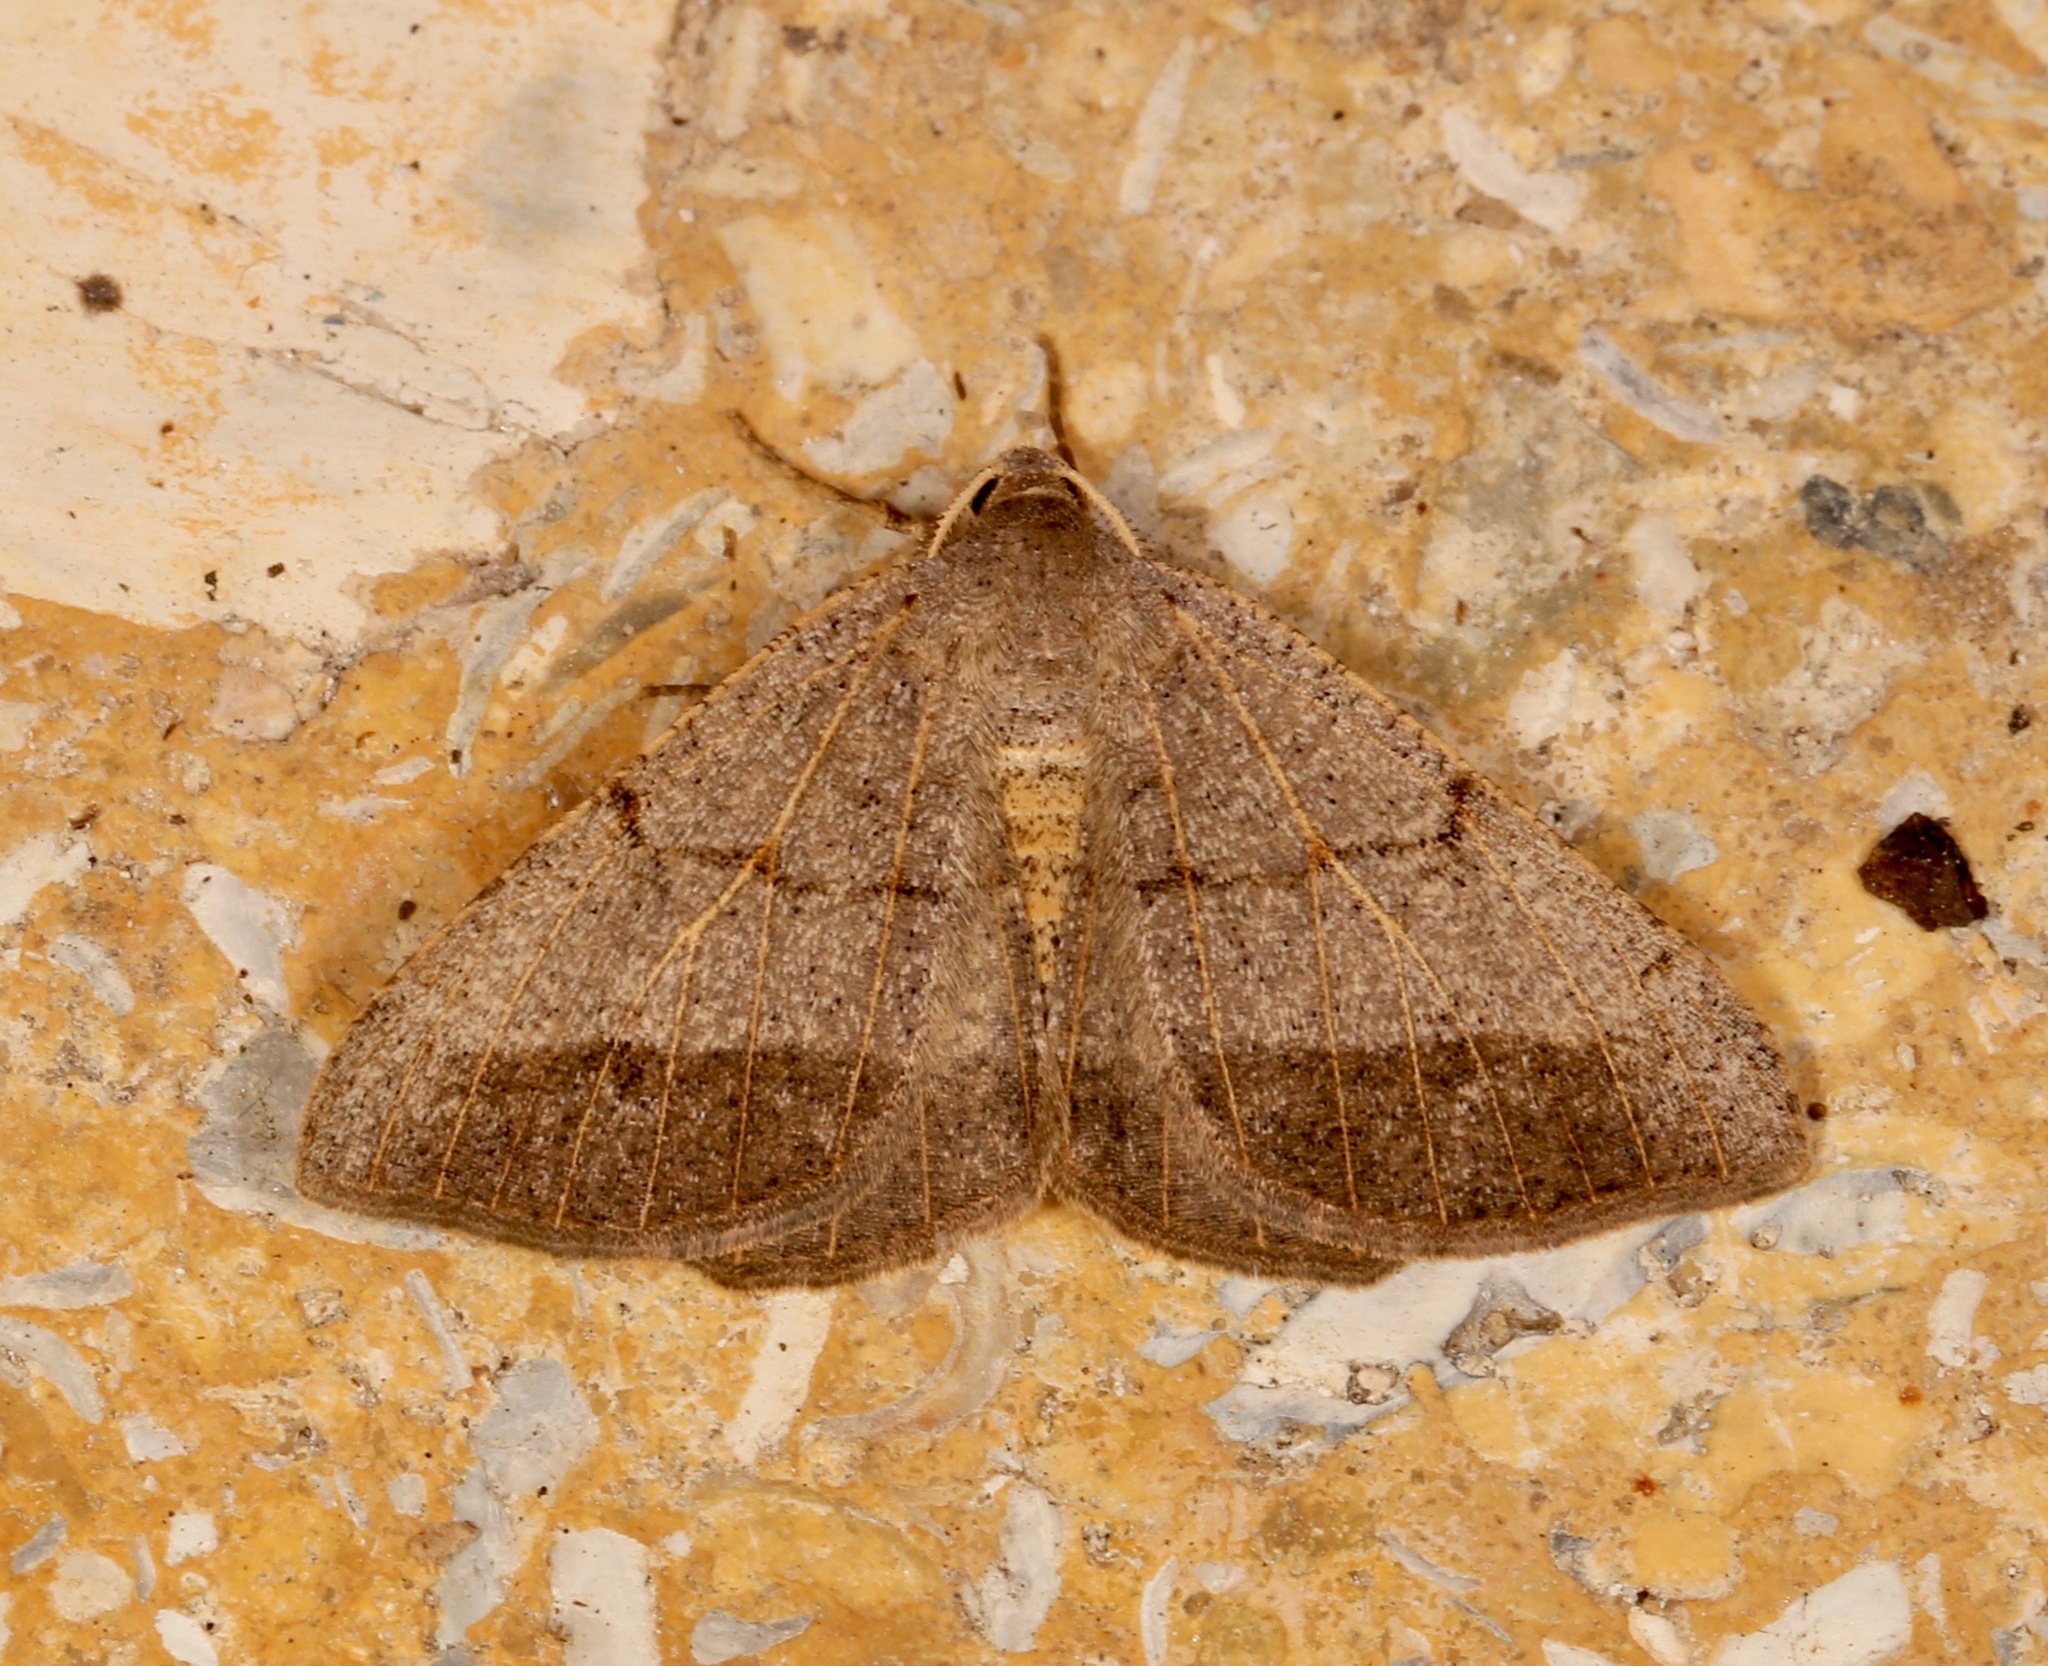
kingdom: Animalia
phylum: Arthropoda
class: Insecta
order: Lepidoptera
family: Geometridae
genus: Isturgia
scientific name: Isturgia dislocaria
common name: Pale-viened enconista
